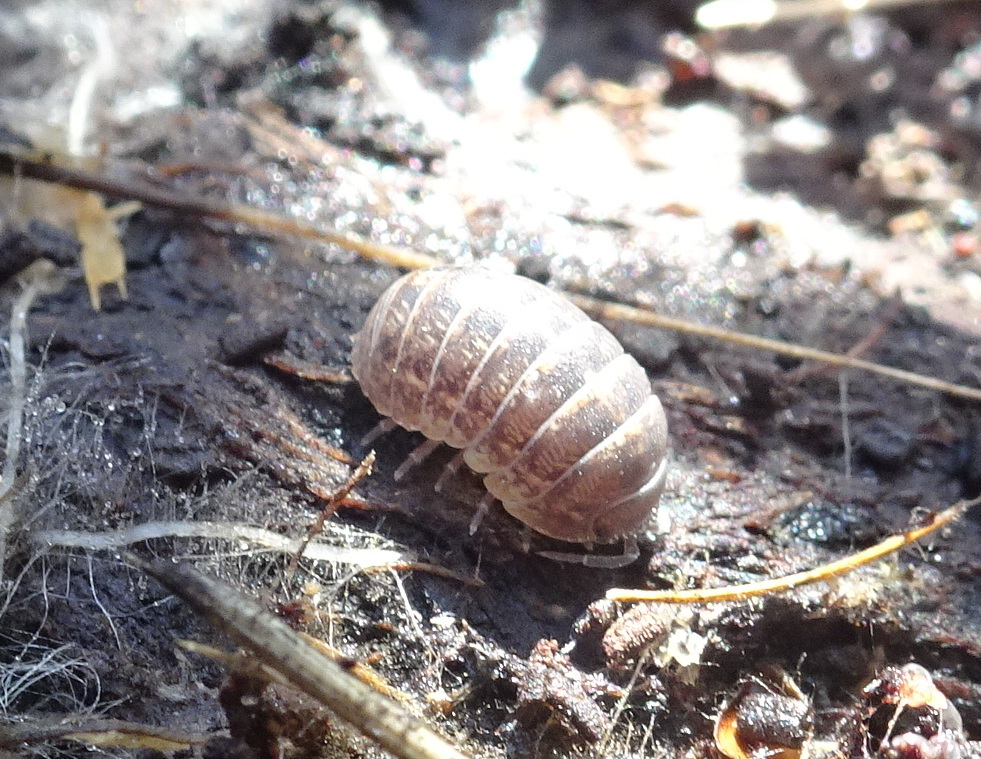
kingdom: Animalia
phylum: Arthropoda
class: Malacostraca
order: Isopoda
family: Armadillidiidae
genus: Armadillidium
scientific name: Armadillidium vulgare
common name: Common pill woodlouse
